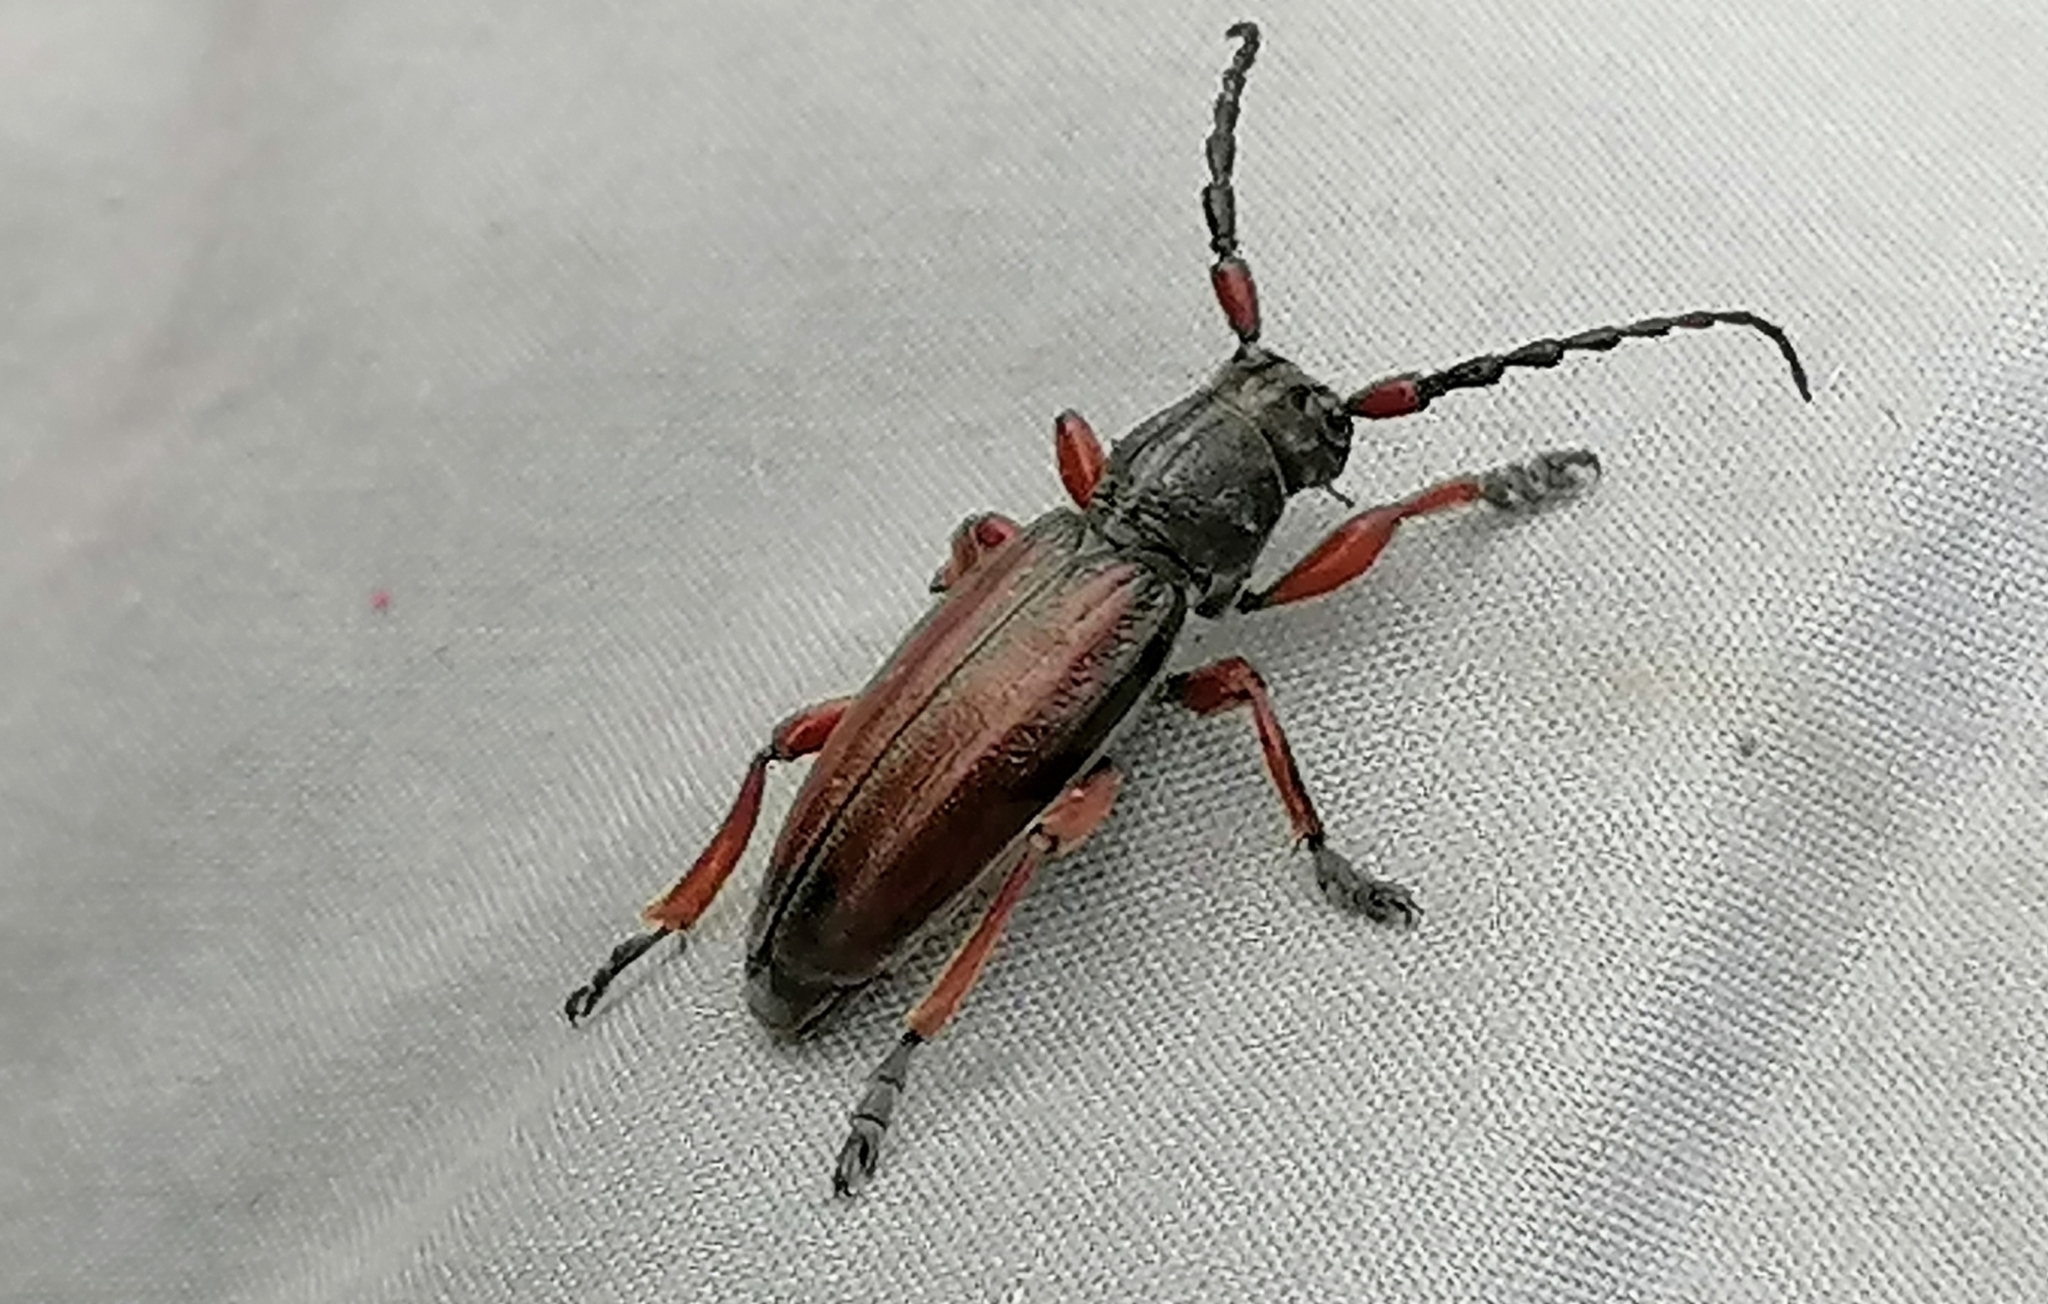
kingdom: Animalia
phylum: Arthropoda
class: Insecta
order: Coleoptera
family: Cerambycidae
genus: Dorcadion
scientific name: Dorcadion fulvum
